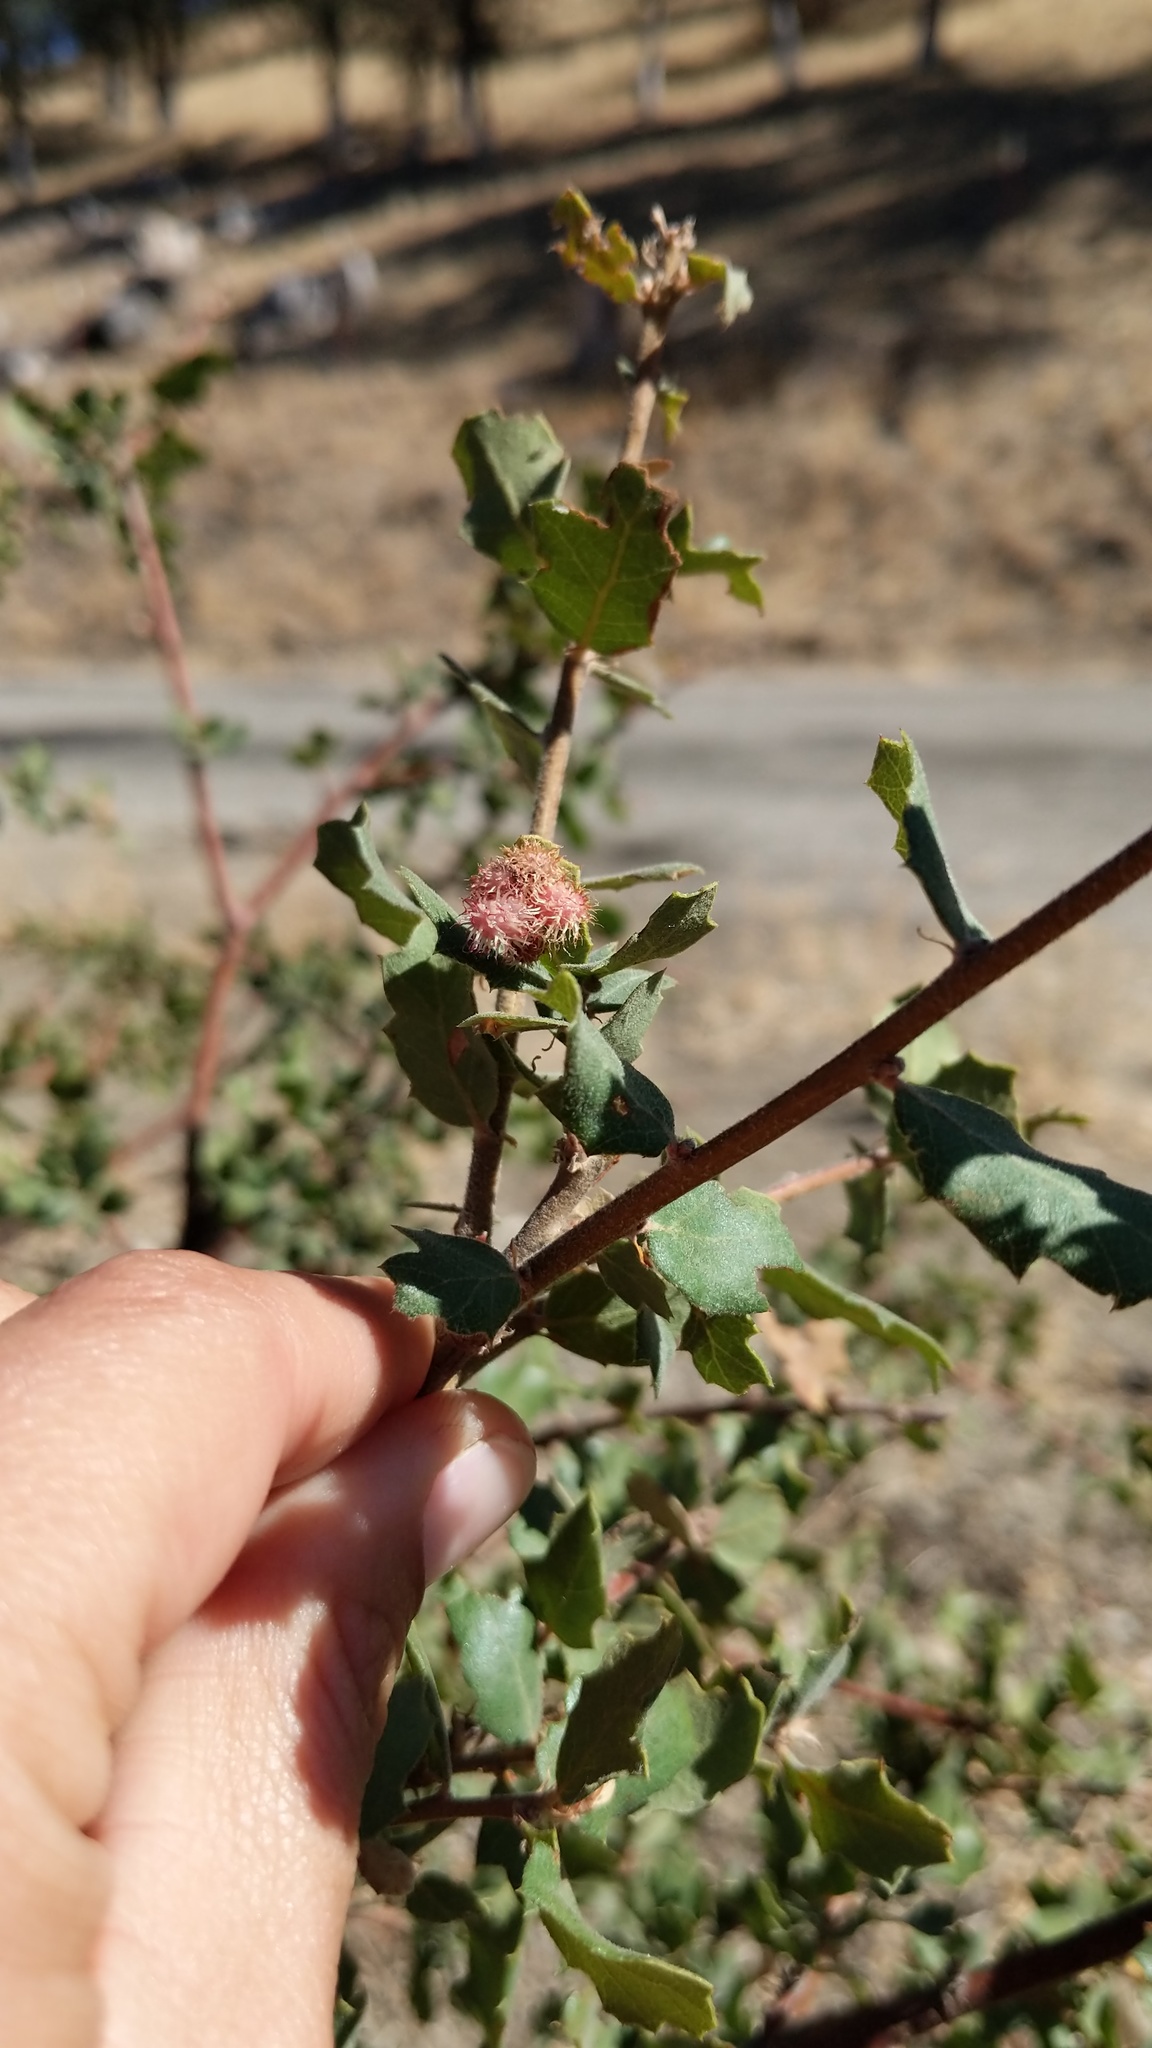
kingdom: Animalia
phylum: Arthropoda
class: Insecta
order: Hymenoptera
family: Cynipidae
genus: Andricus
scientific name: Andricus
